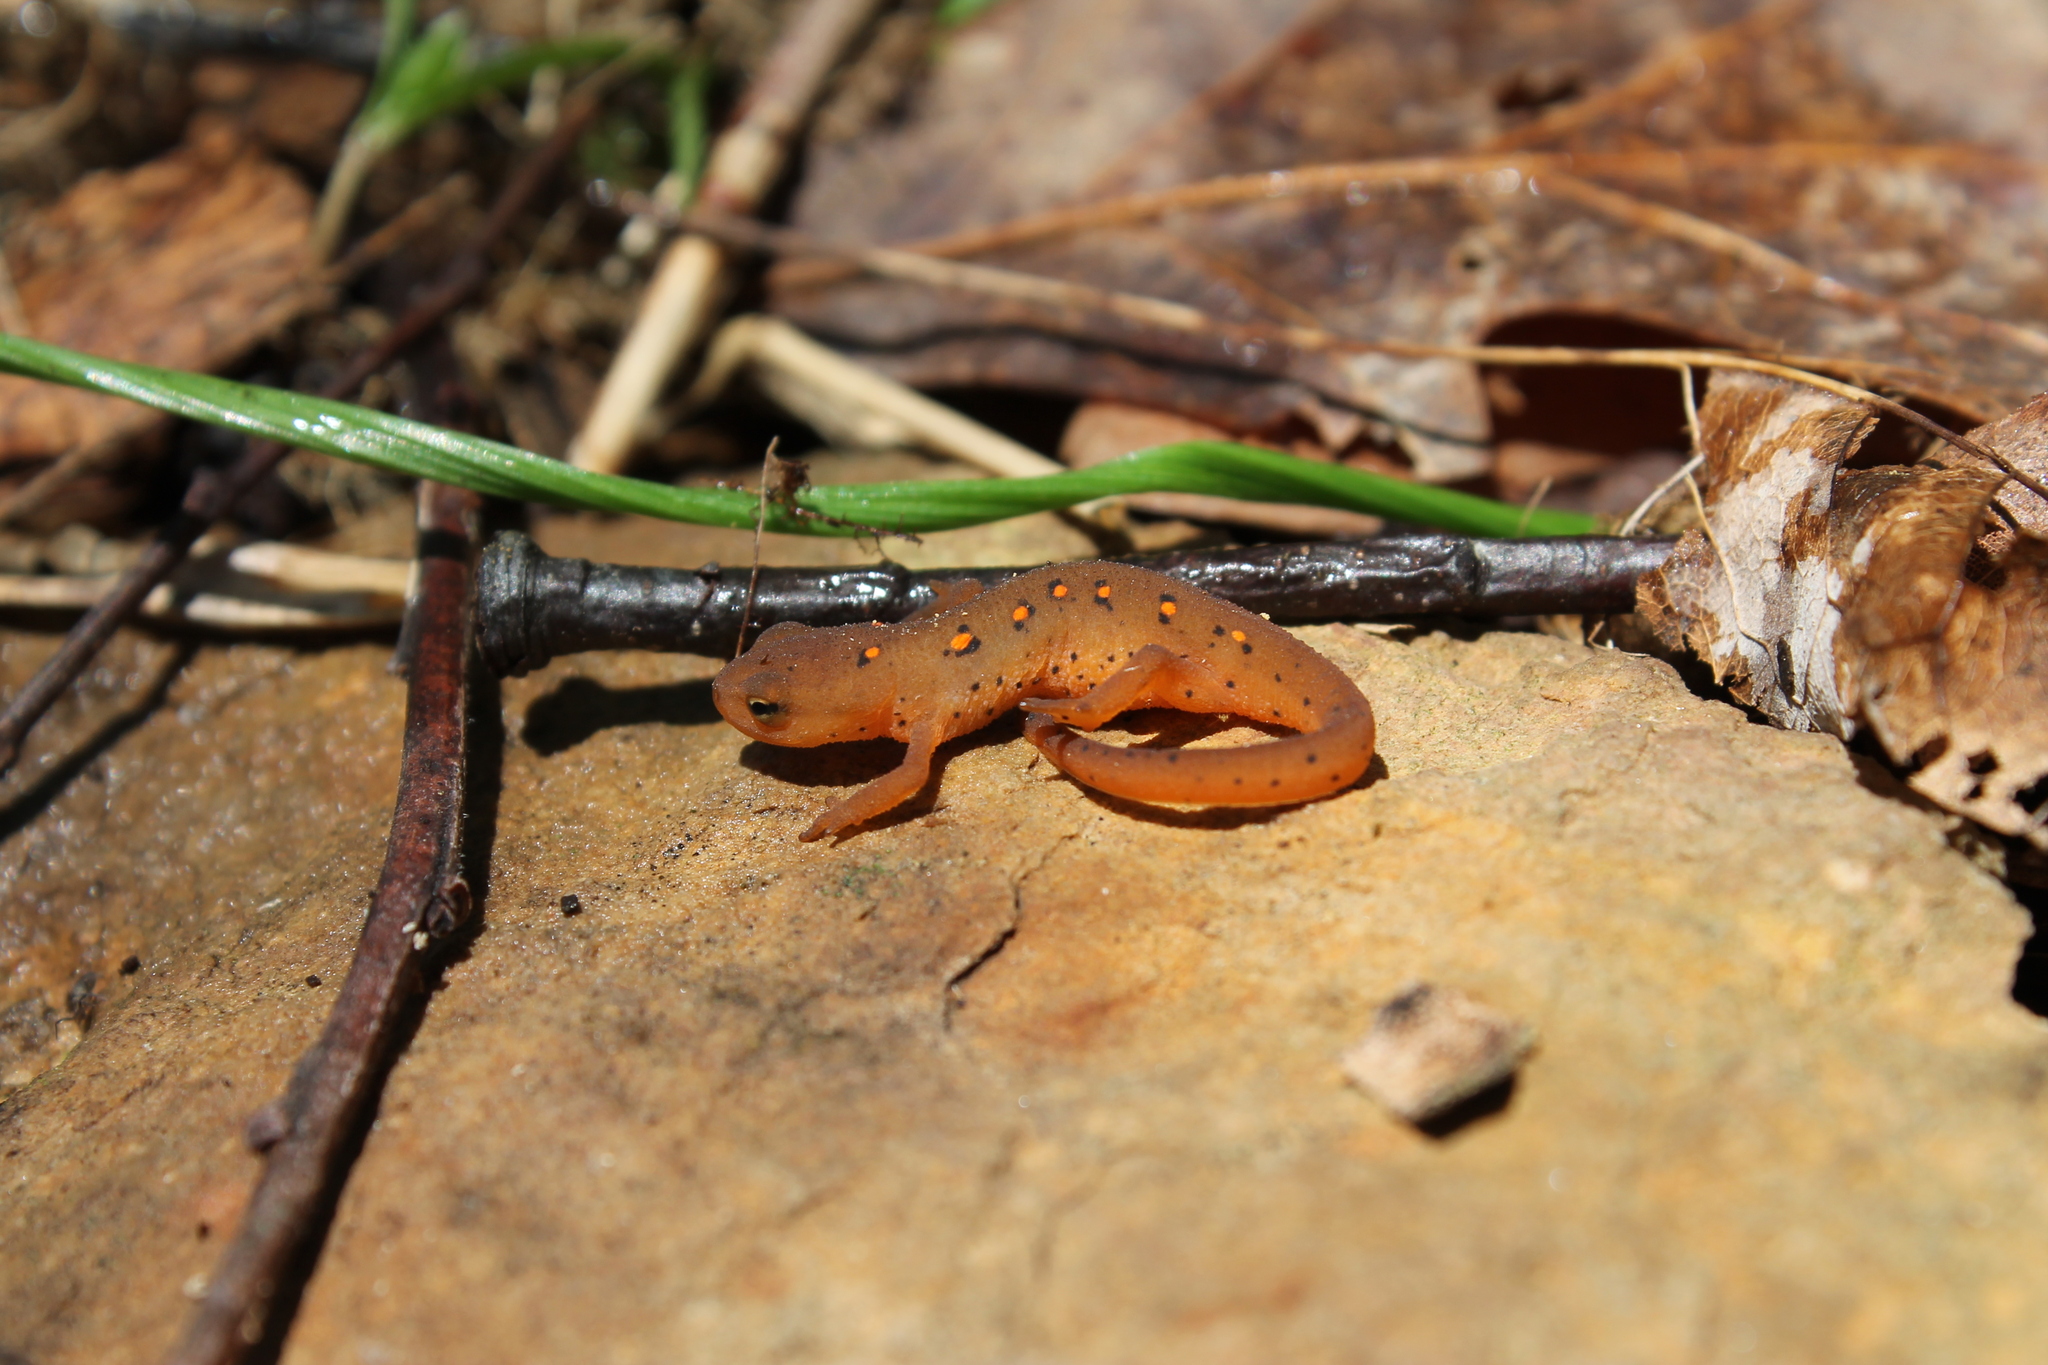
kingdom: Animalia
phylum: Chordata
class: Amphibia
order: Caudata
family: Salamandridae
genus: Notophthalmus
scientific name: Notophthalmus viridescens
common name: Eastern newt
